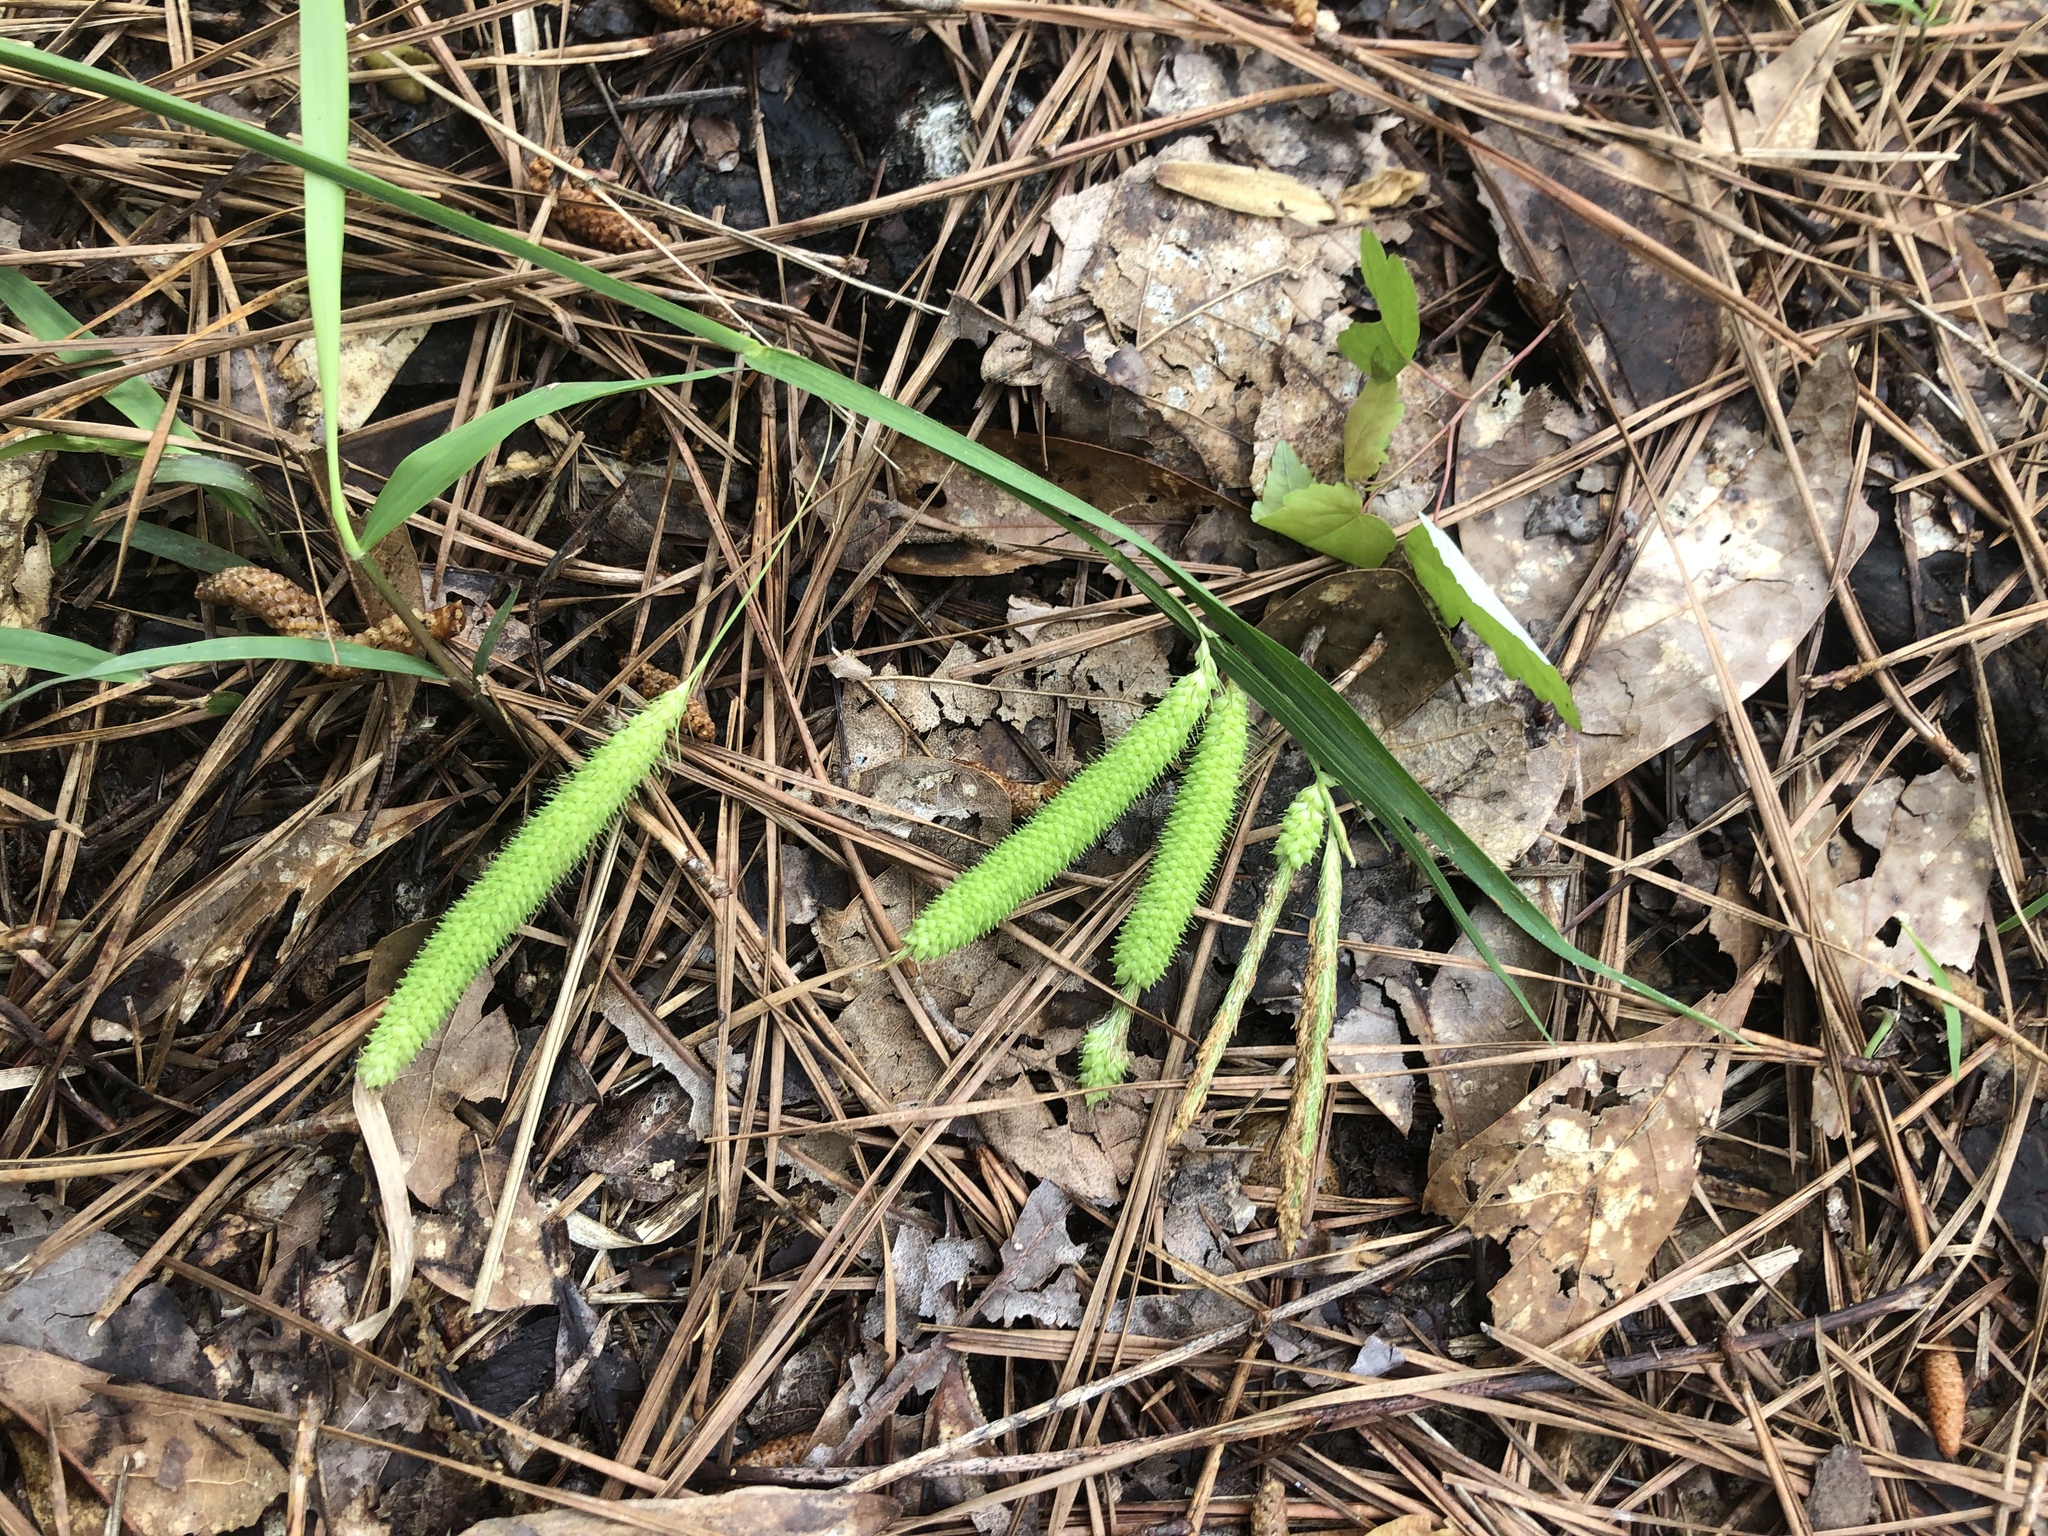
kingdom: Plantae
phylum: Tracheophyta
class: Liliopsida
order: Poales
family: Cyperaceae
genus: Carex
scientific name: Carex crinita
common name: Fringed sedge
